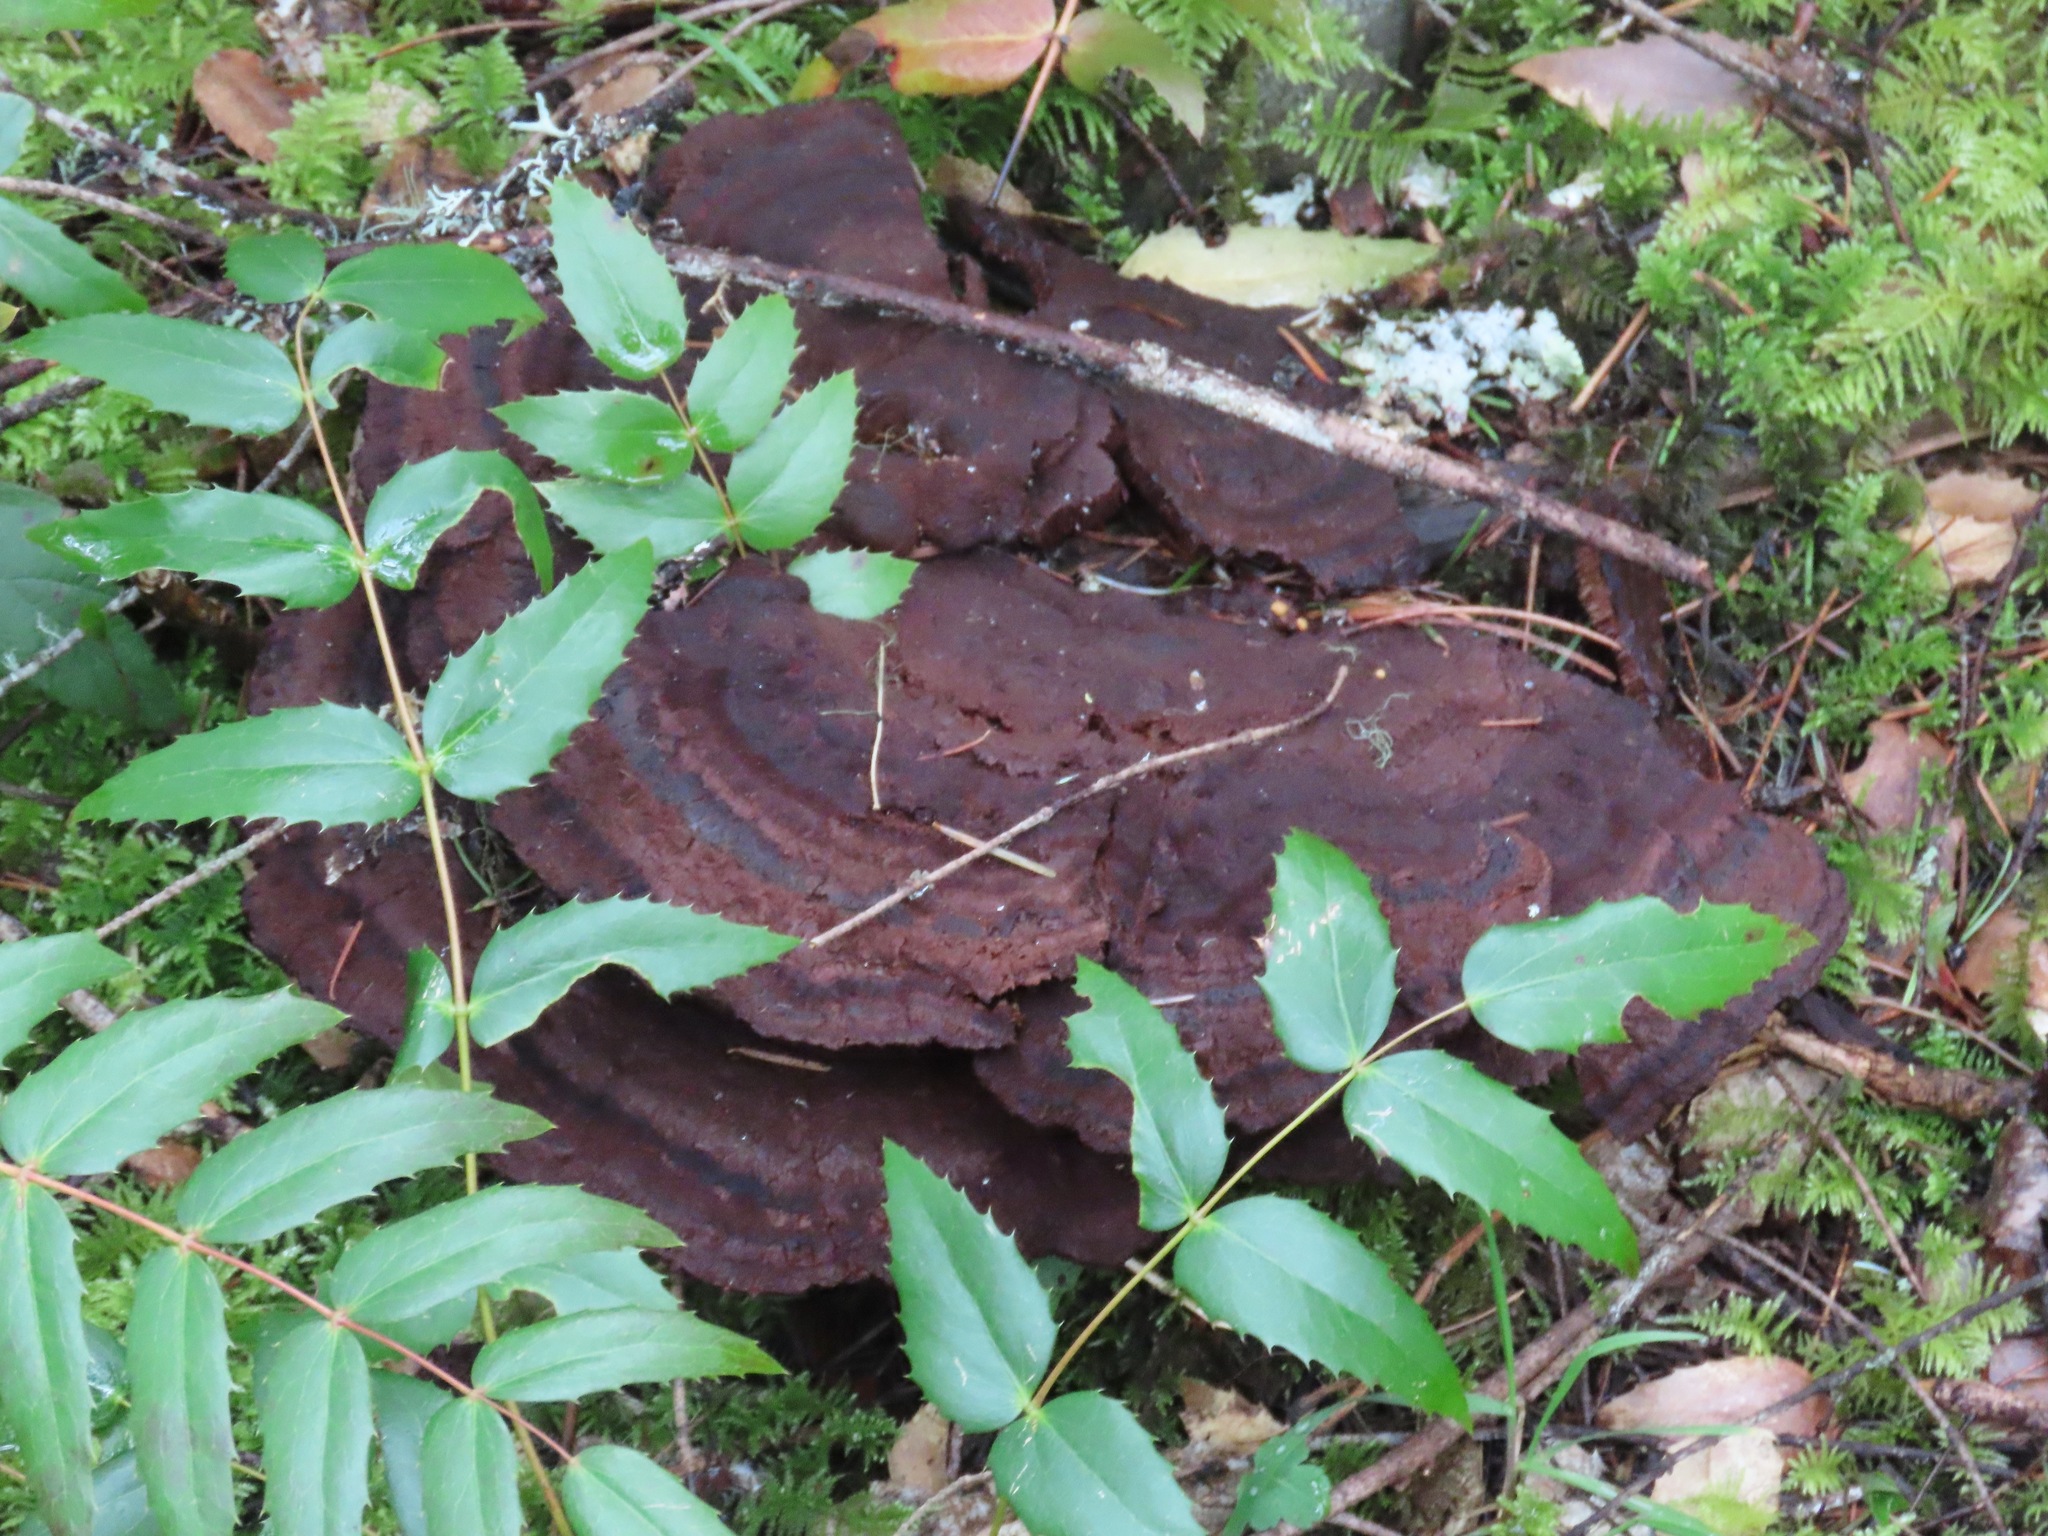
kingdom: Fungi
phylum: Basidiomycota
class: Agaricomycetes
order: Polyporales
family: Laetiporaceae
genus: Phaeolus
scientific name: Phaeolus schweinitzii
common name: Dyer's mazegill
